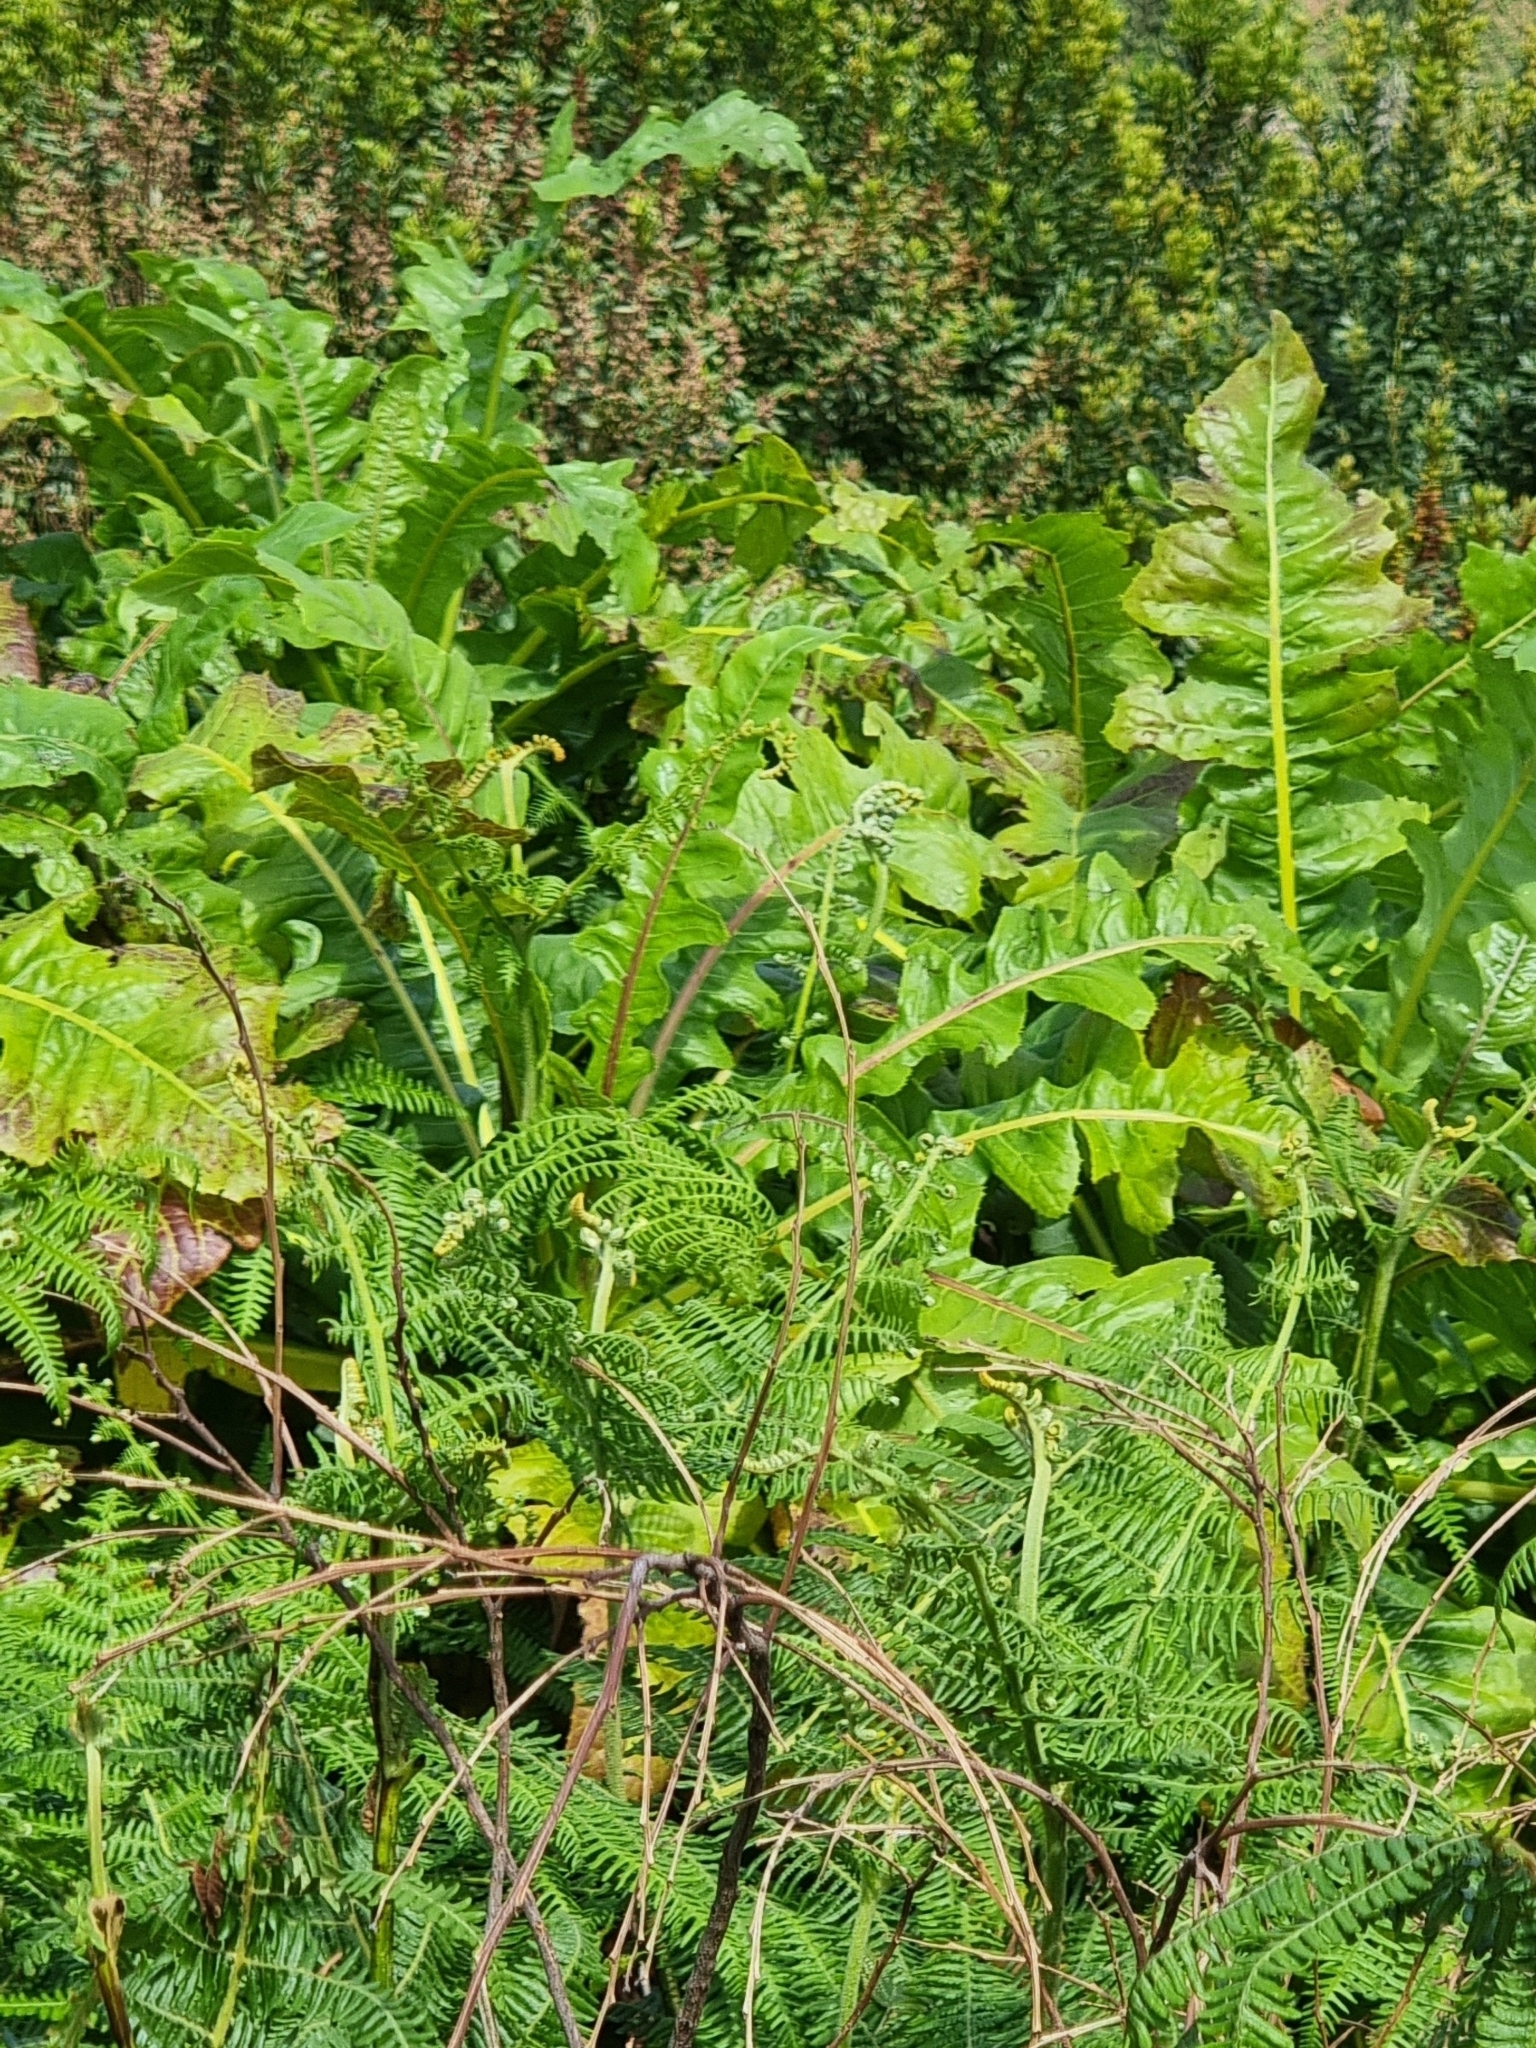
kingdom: Plantae
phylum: Tracheophyta
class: Magnoliopsida
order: Asterales
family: Asteraceae
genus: Sonchus
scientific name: Sonchus fruticosus
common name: Shrubby sow-thistle
